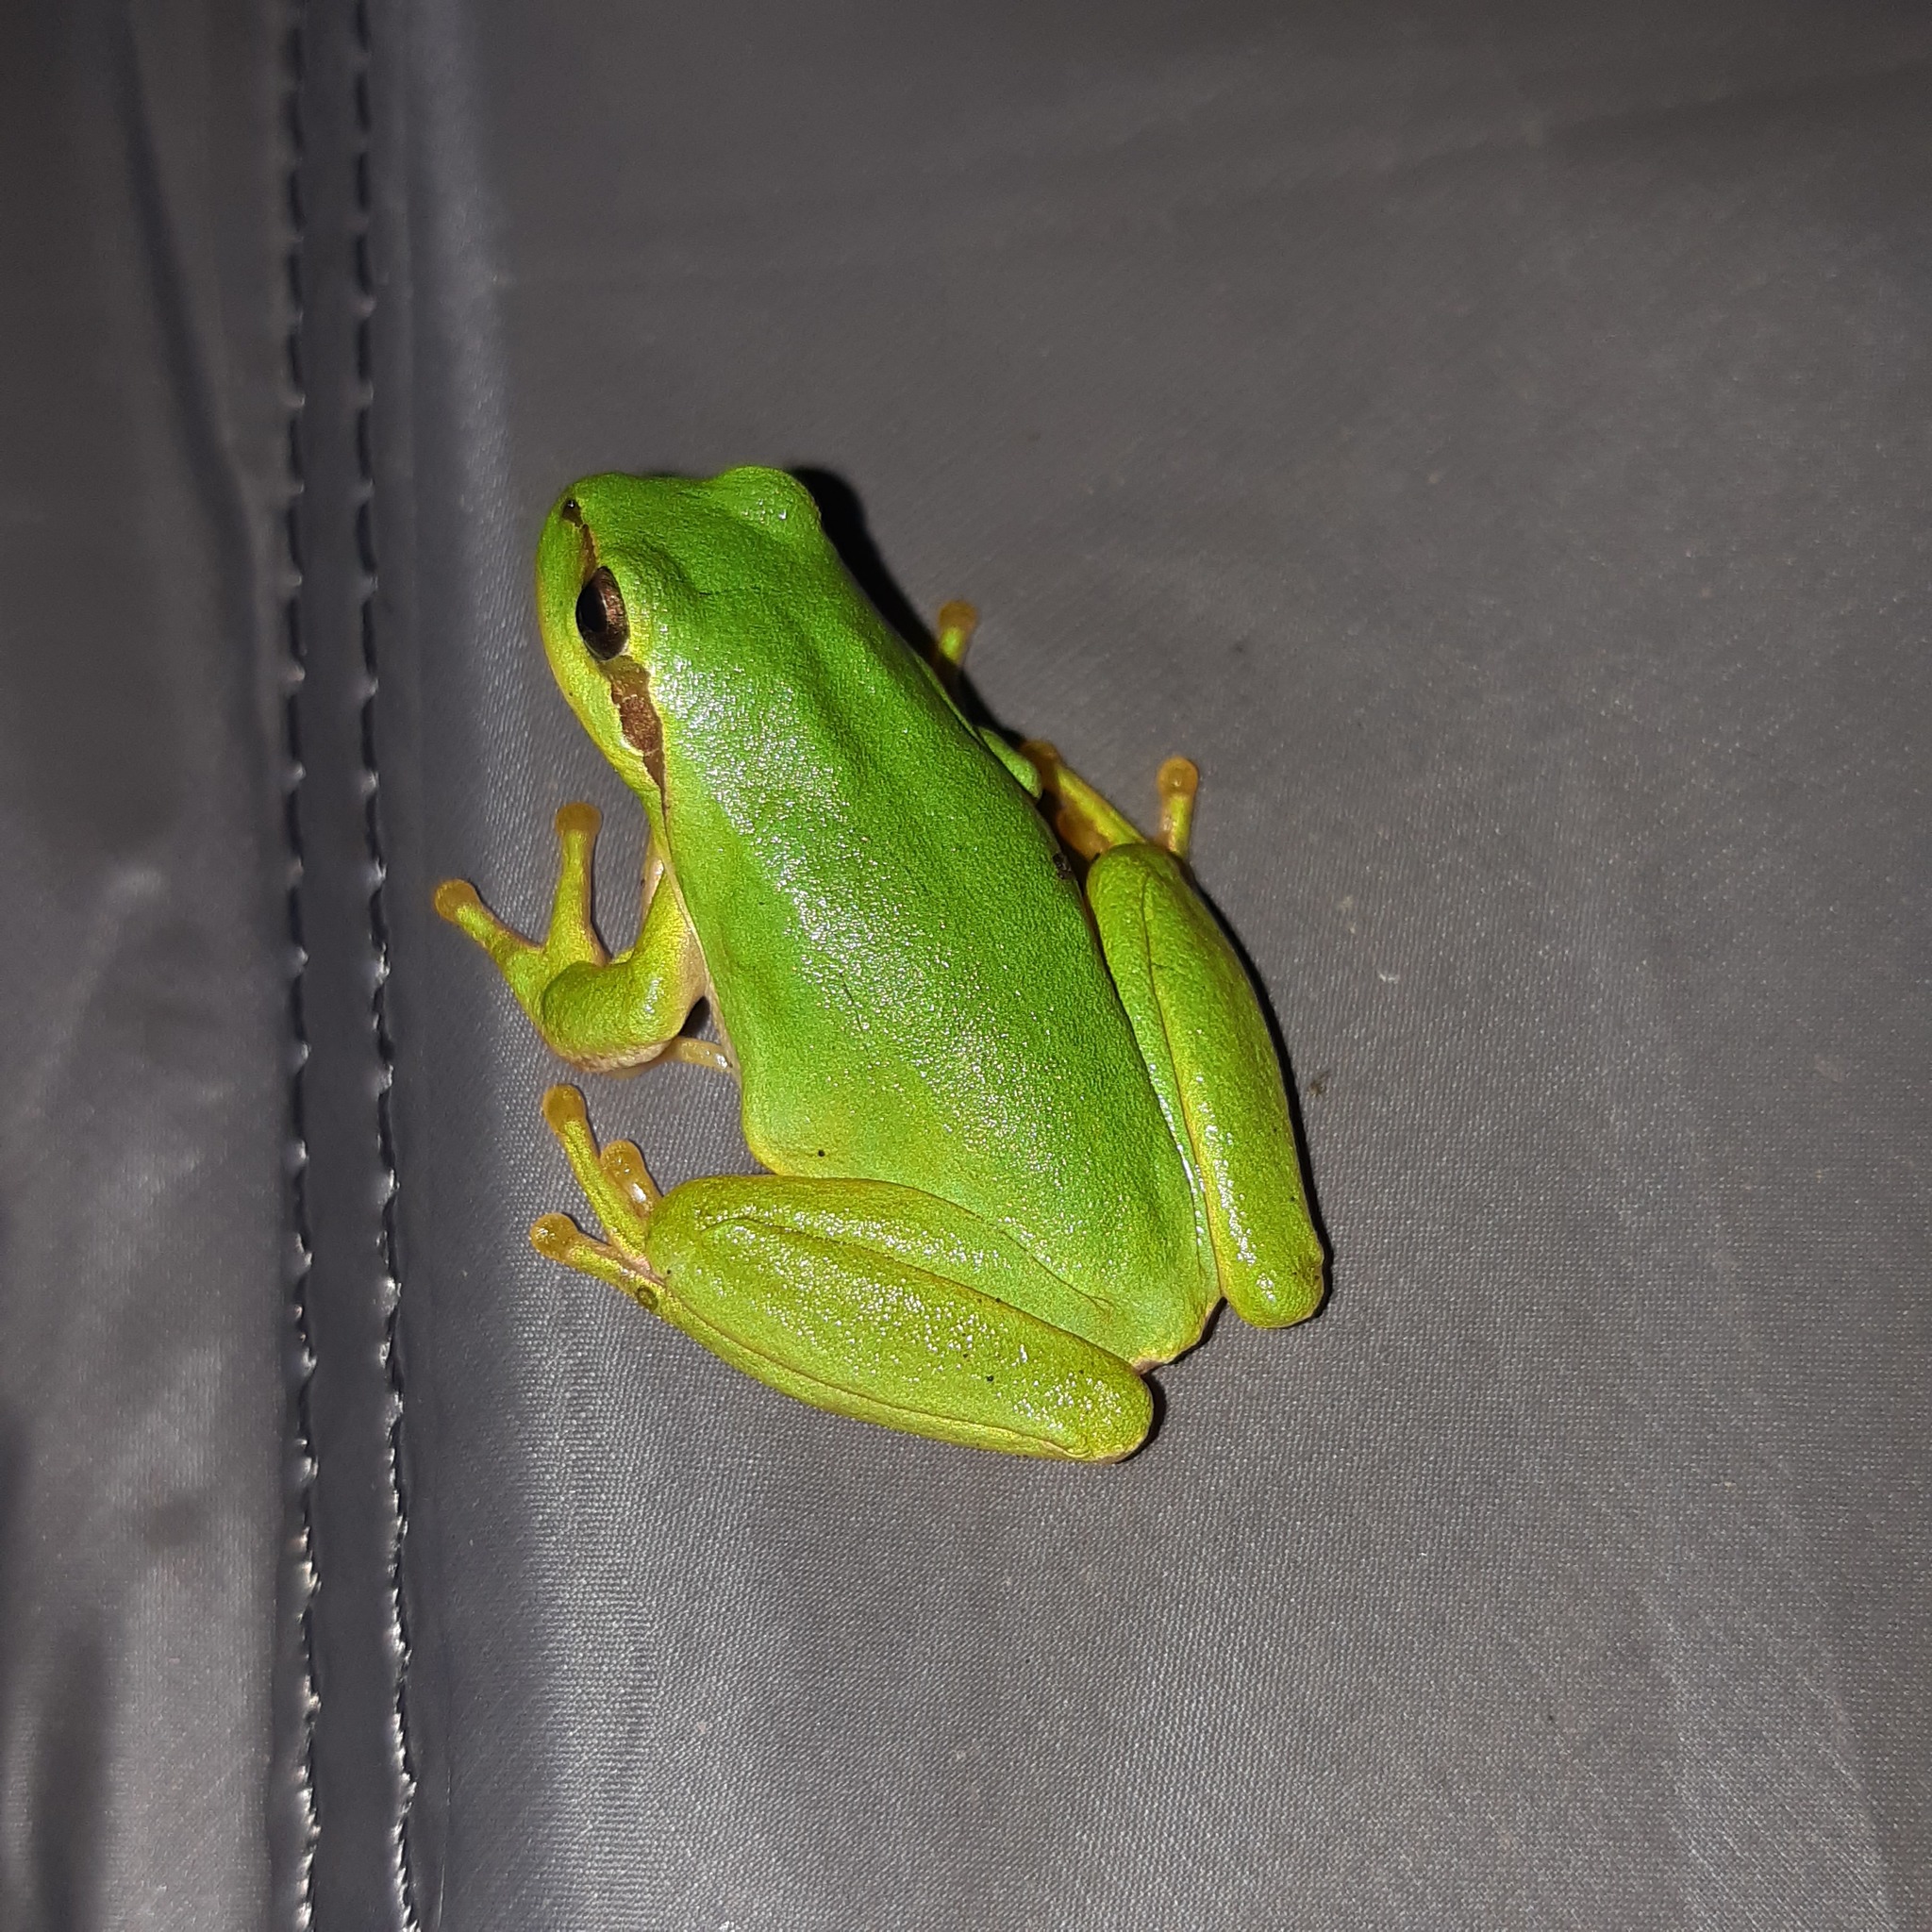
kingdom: Animalia
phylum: Chordata
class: Amphibia
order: Anura
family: Hylidae
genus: Hyla
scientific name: Hyla meridionalis
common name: Stripeless tree frog
